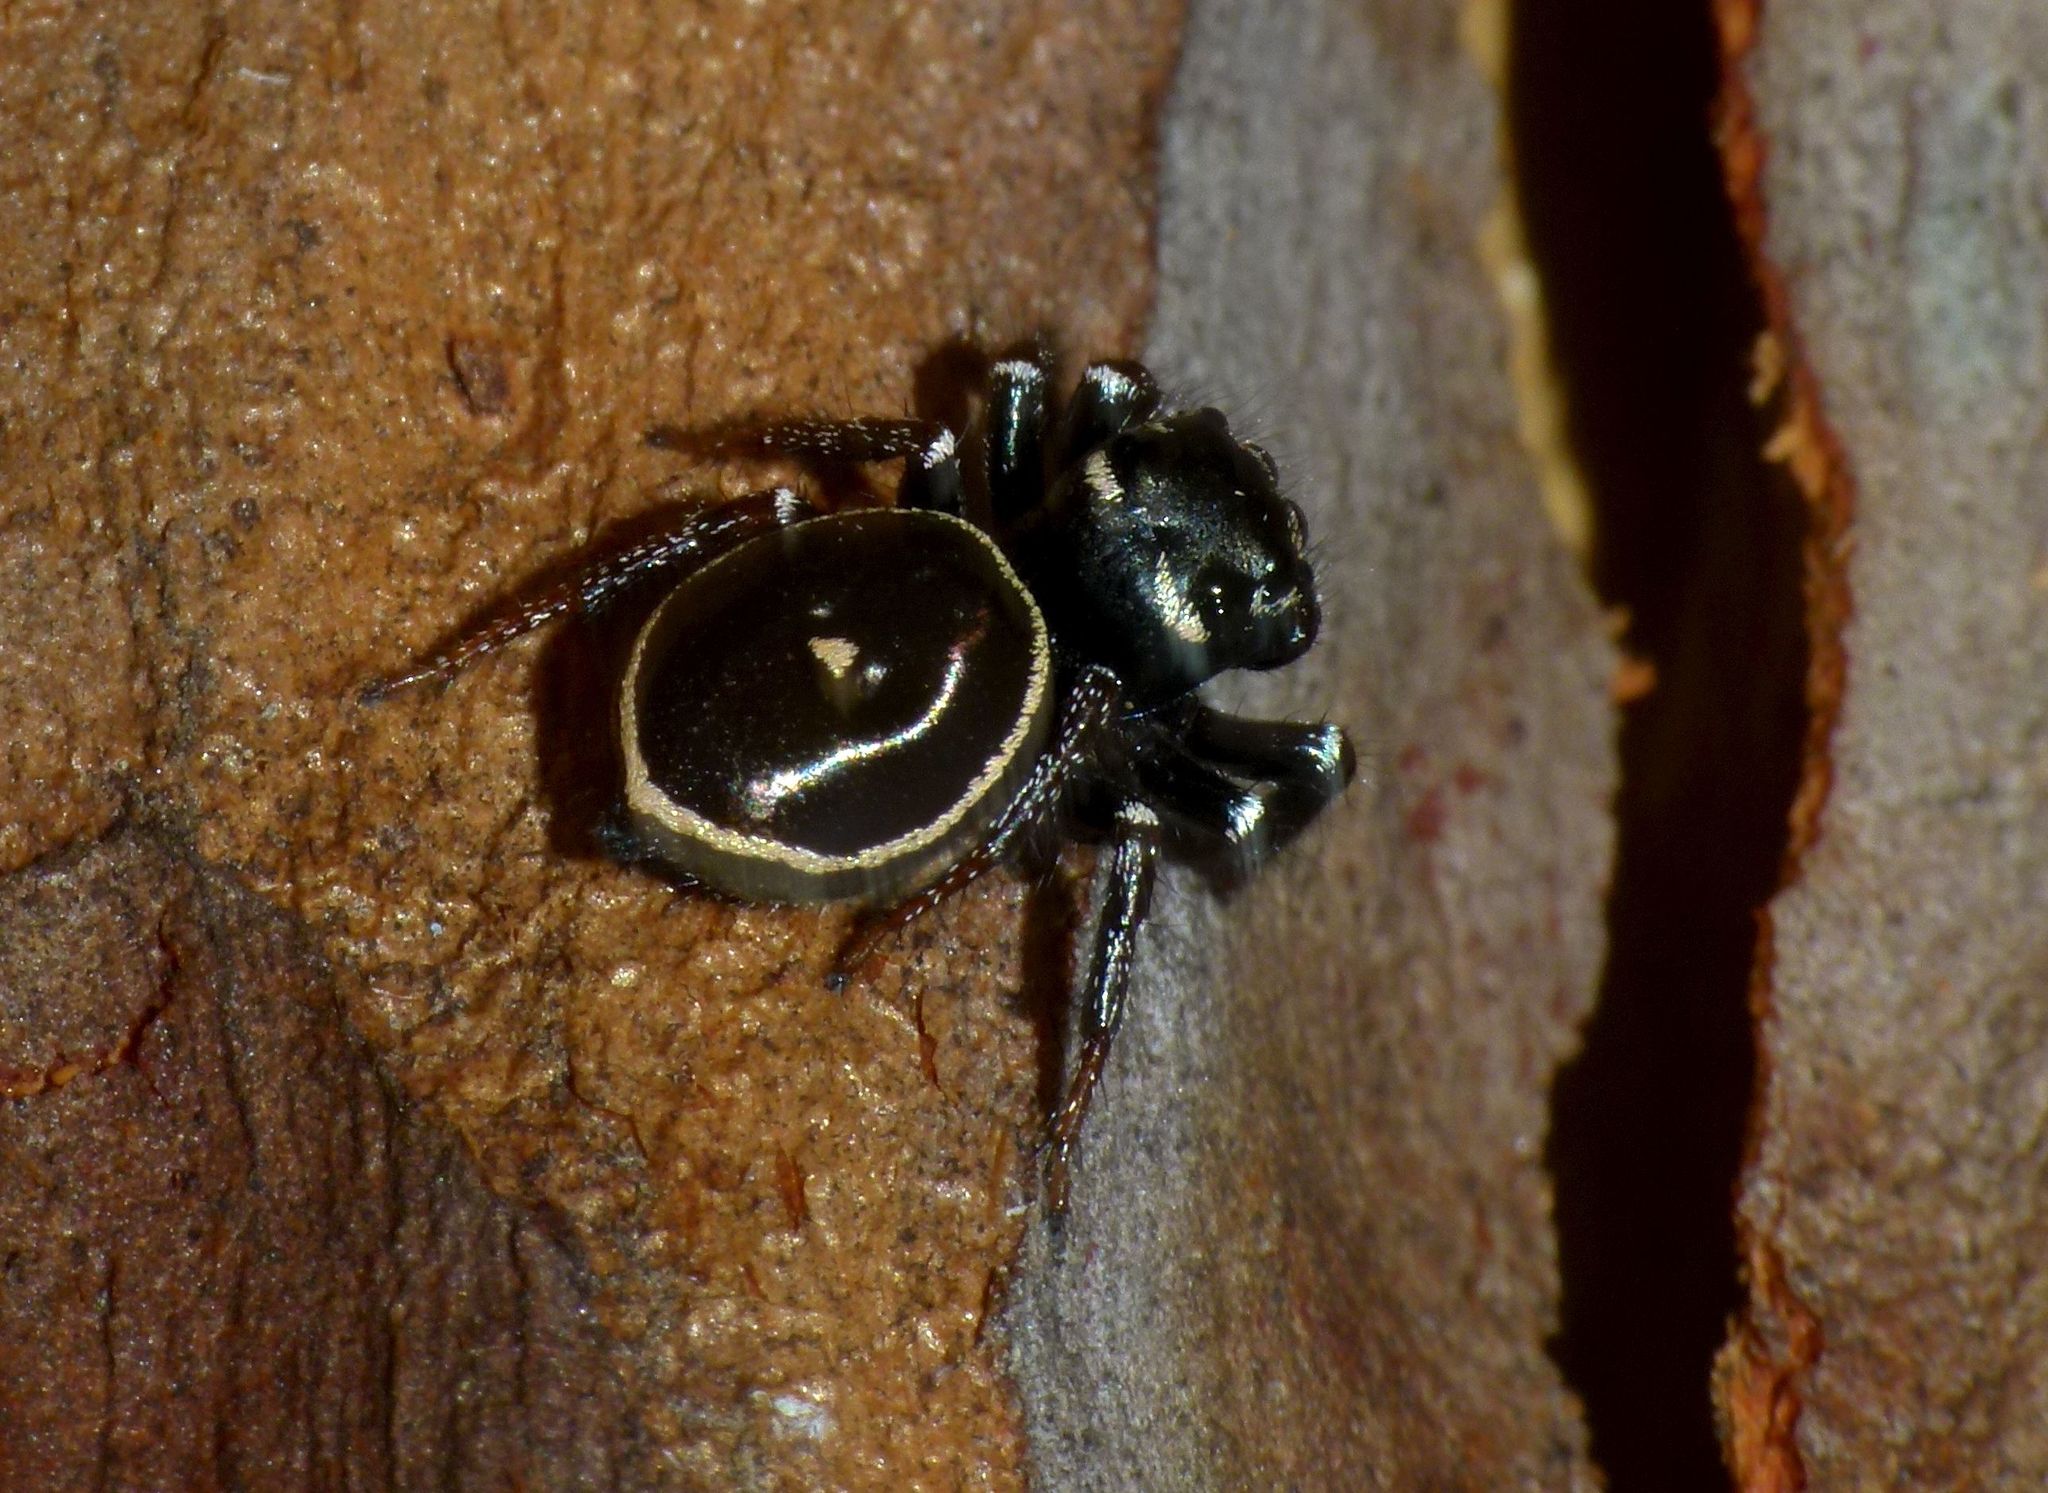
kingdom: Animalia
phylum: Arthropoda
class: Arachnida
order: Araneae
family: Salticidae
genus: Zenodorus
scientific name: Zenodorus orbiculatus
